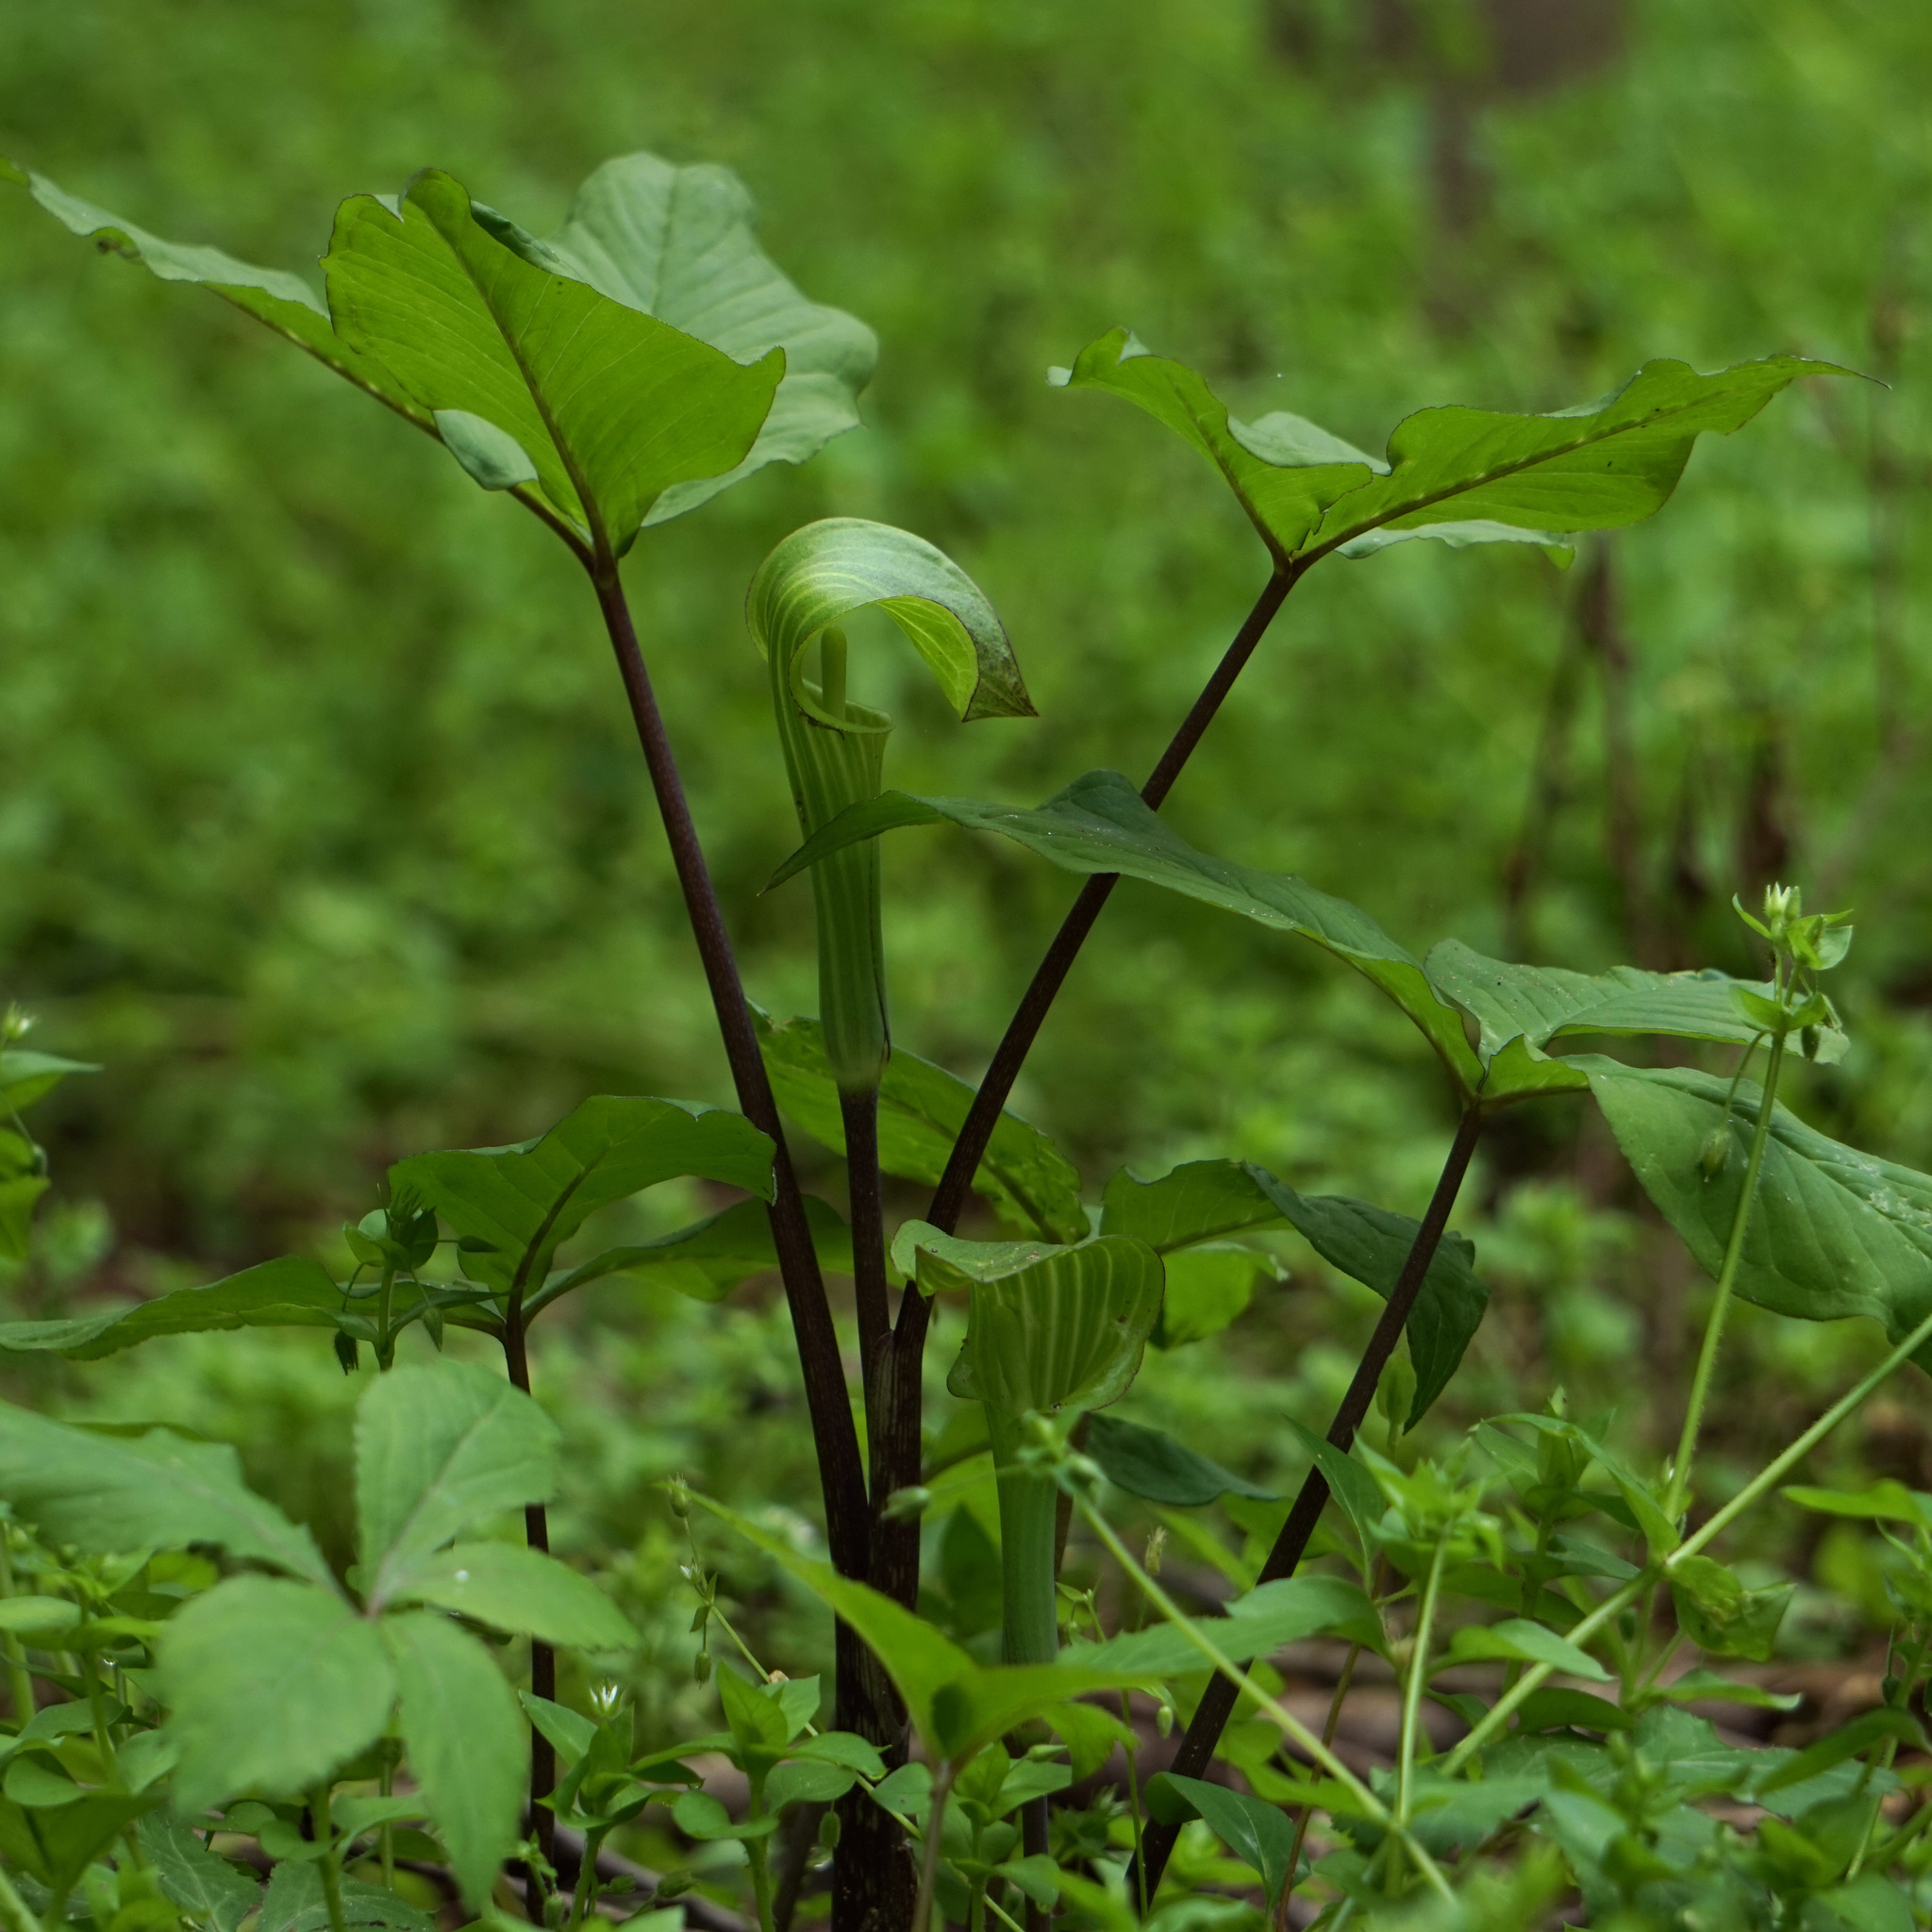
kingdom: Plantae
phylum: Tracheophyta
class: Liliopsida
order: Alismatales
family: Araceae
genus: Arisaema
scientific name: Arisaema triphyllum
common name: Jack-in-the-pulpit
